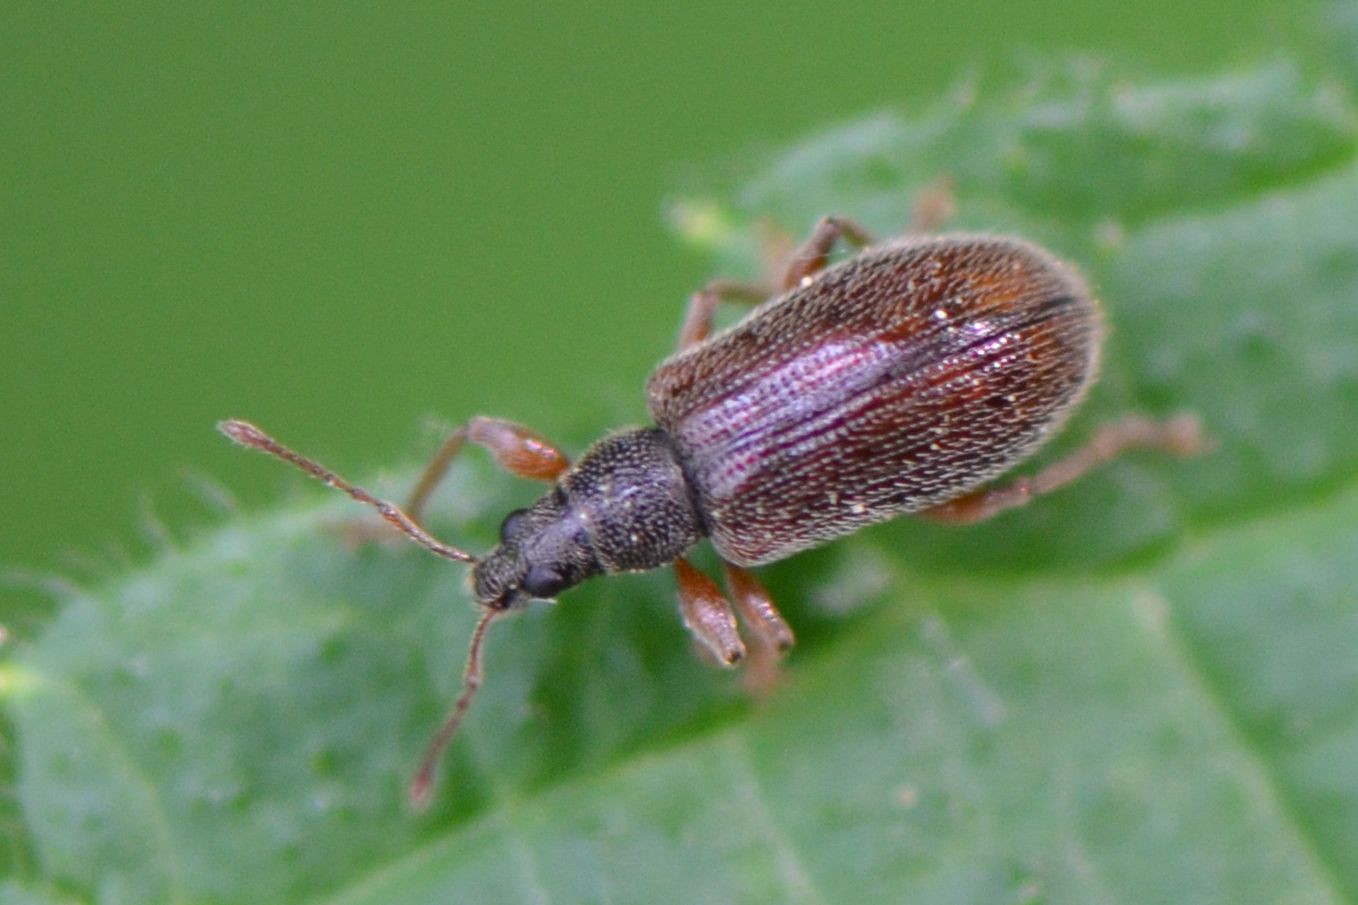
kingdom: Animalia
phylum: Arthropoda
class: Insecta
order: Coleoptera
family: Curculionidae
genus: Phyllobius
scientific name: Phyllobius oblongus
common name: Brown leaf weevil
